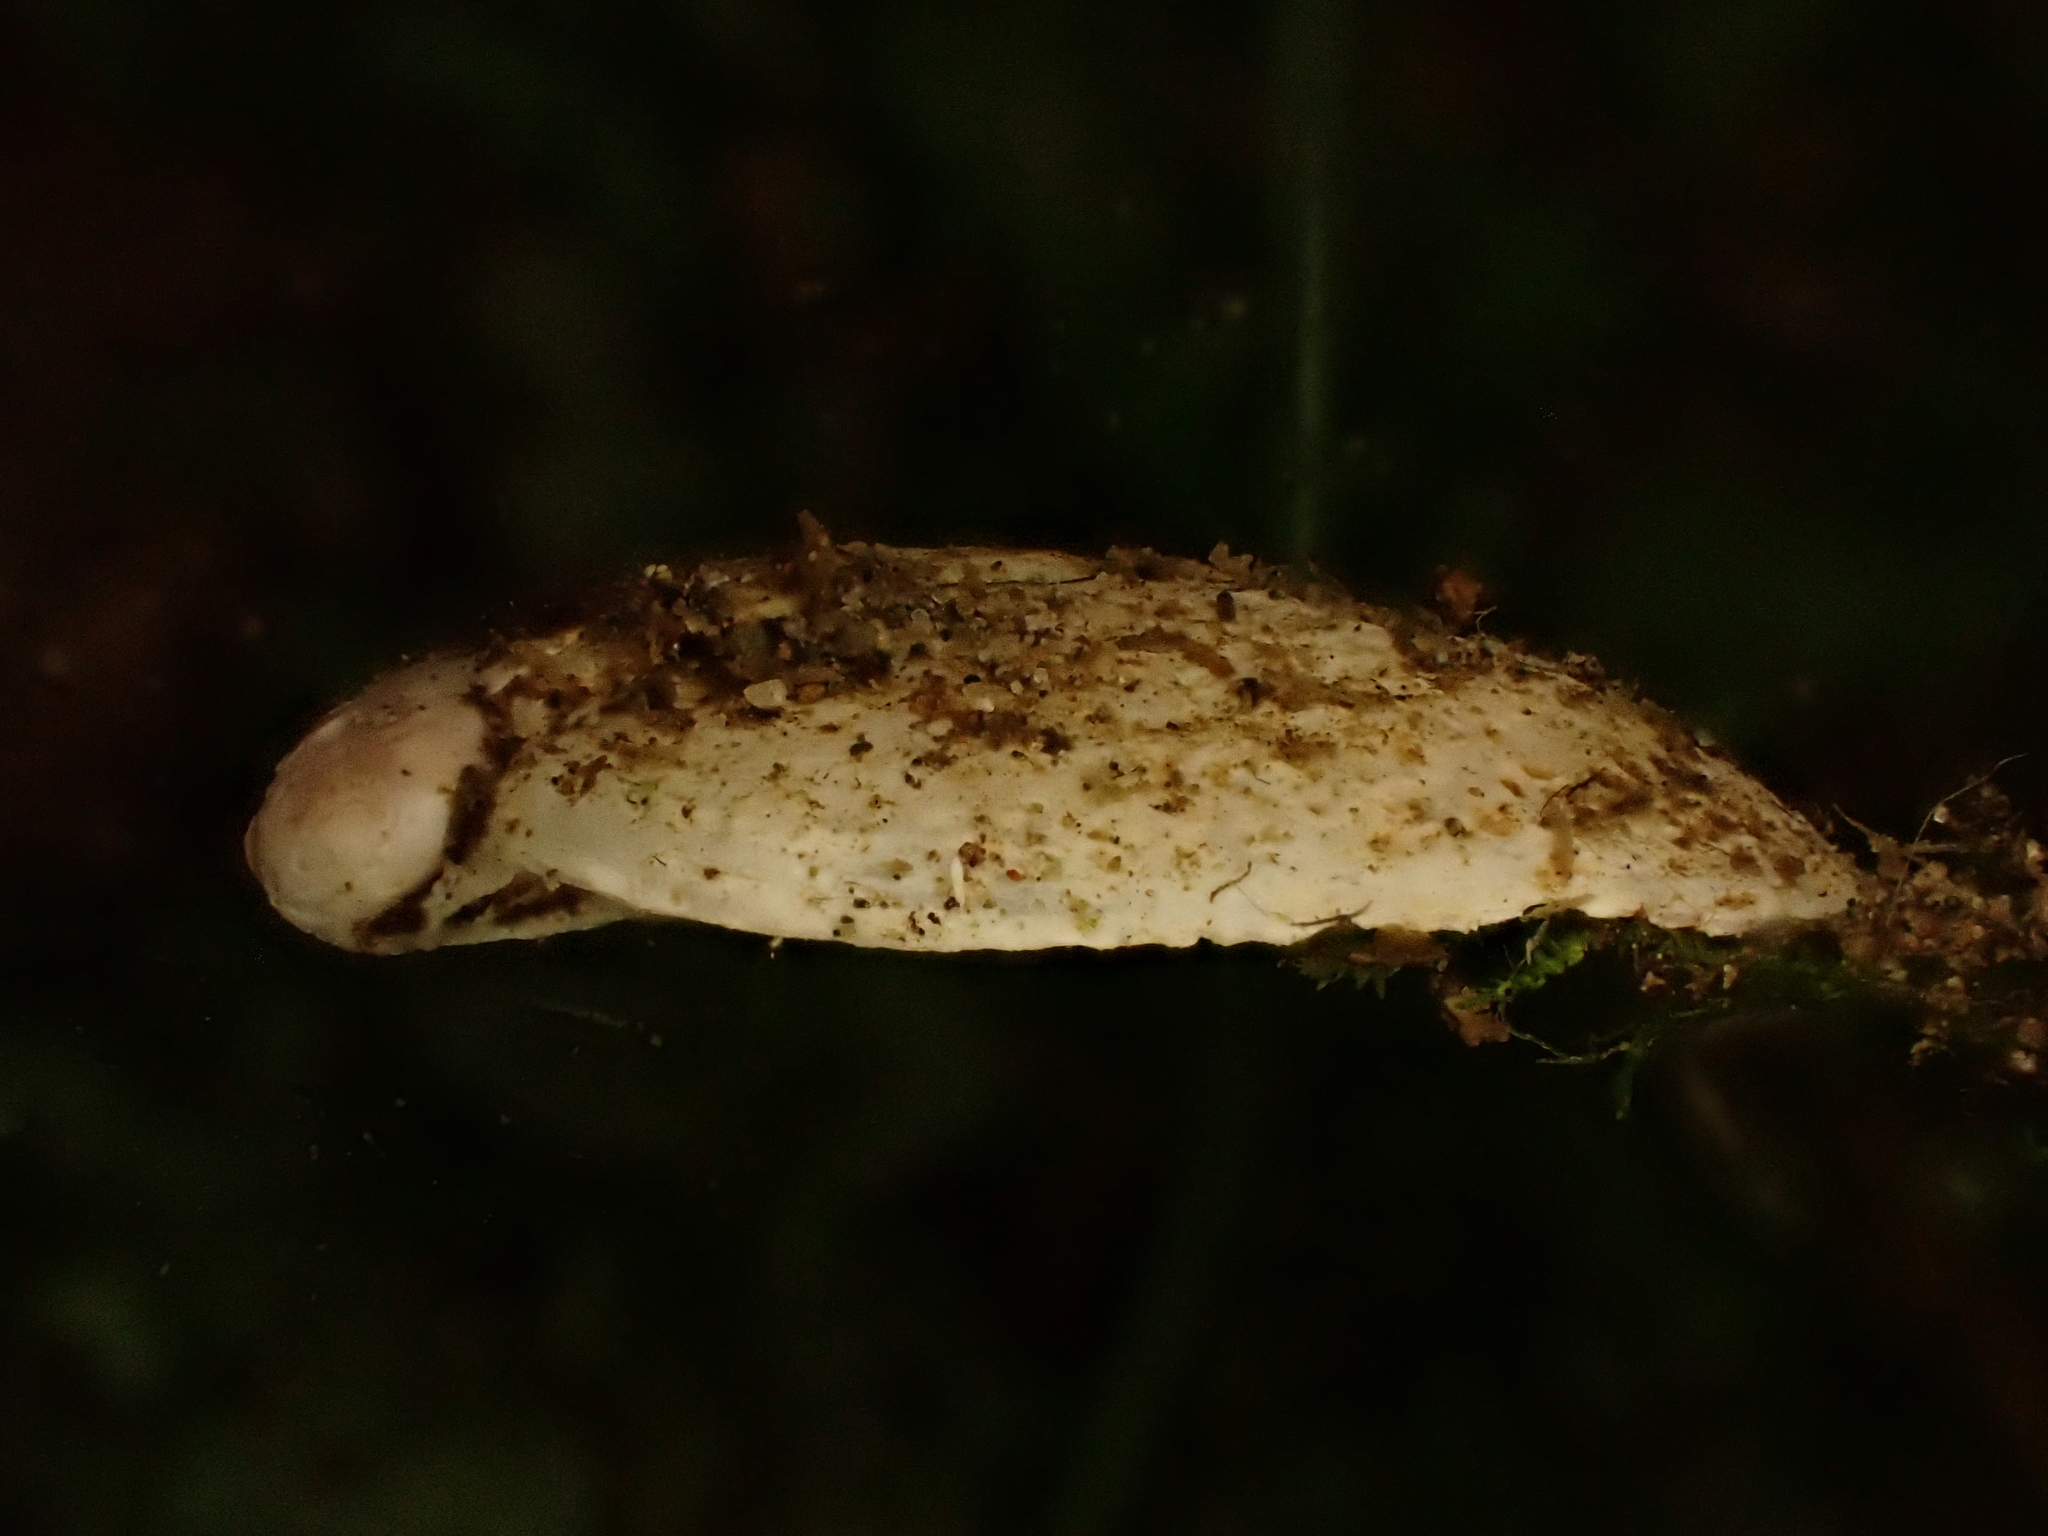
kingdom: Animalia
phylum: Mollusca
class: Gastropoda
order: Stylommatophora
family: Rhytididae
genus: Schizoglossa
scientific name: Schizoglossa novoseelandica
